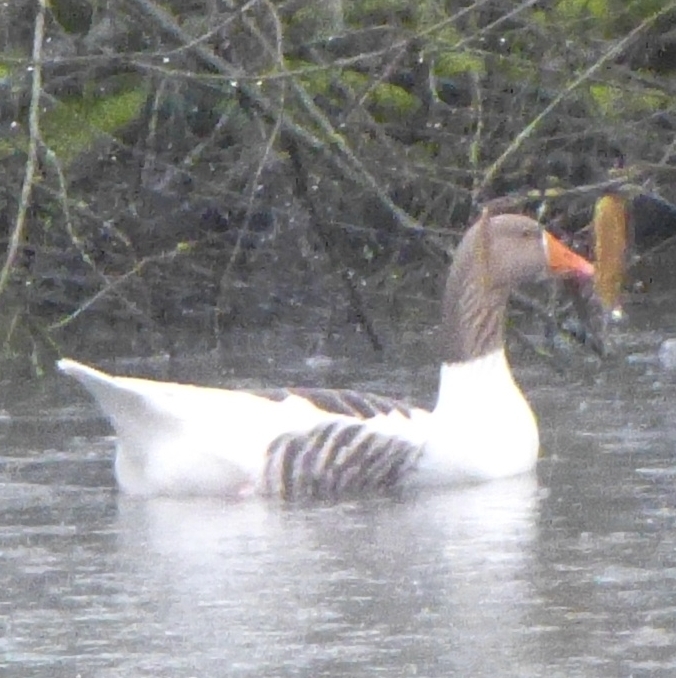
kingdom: Animalia
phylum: Chordata
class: Aves
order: Anseriformes
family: Anatidae
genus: Anser
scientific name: Anser anser
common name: Greylag goose
